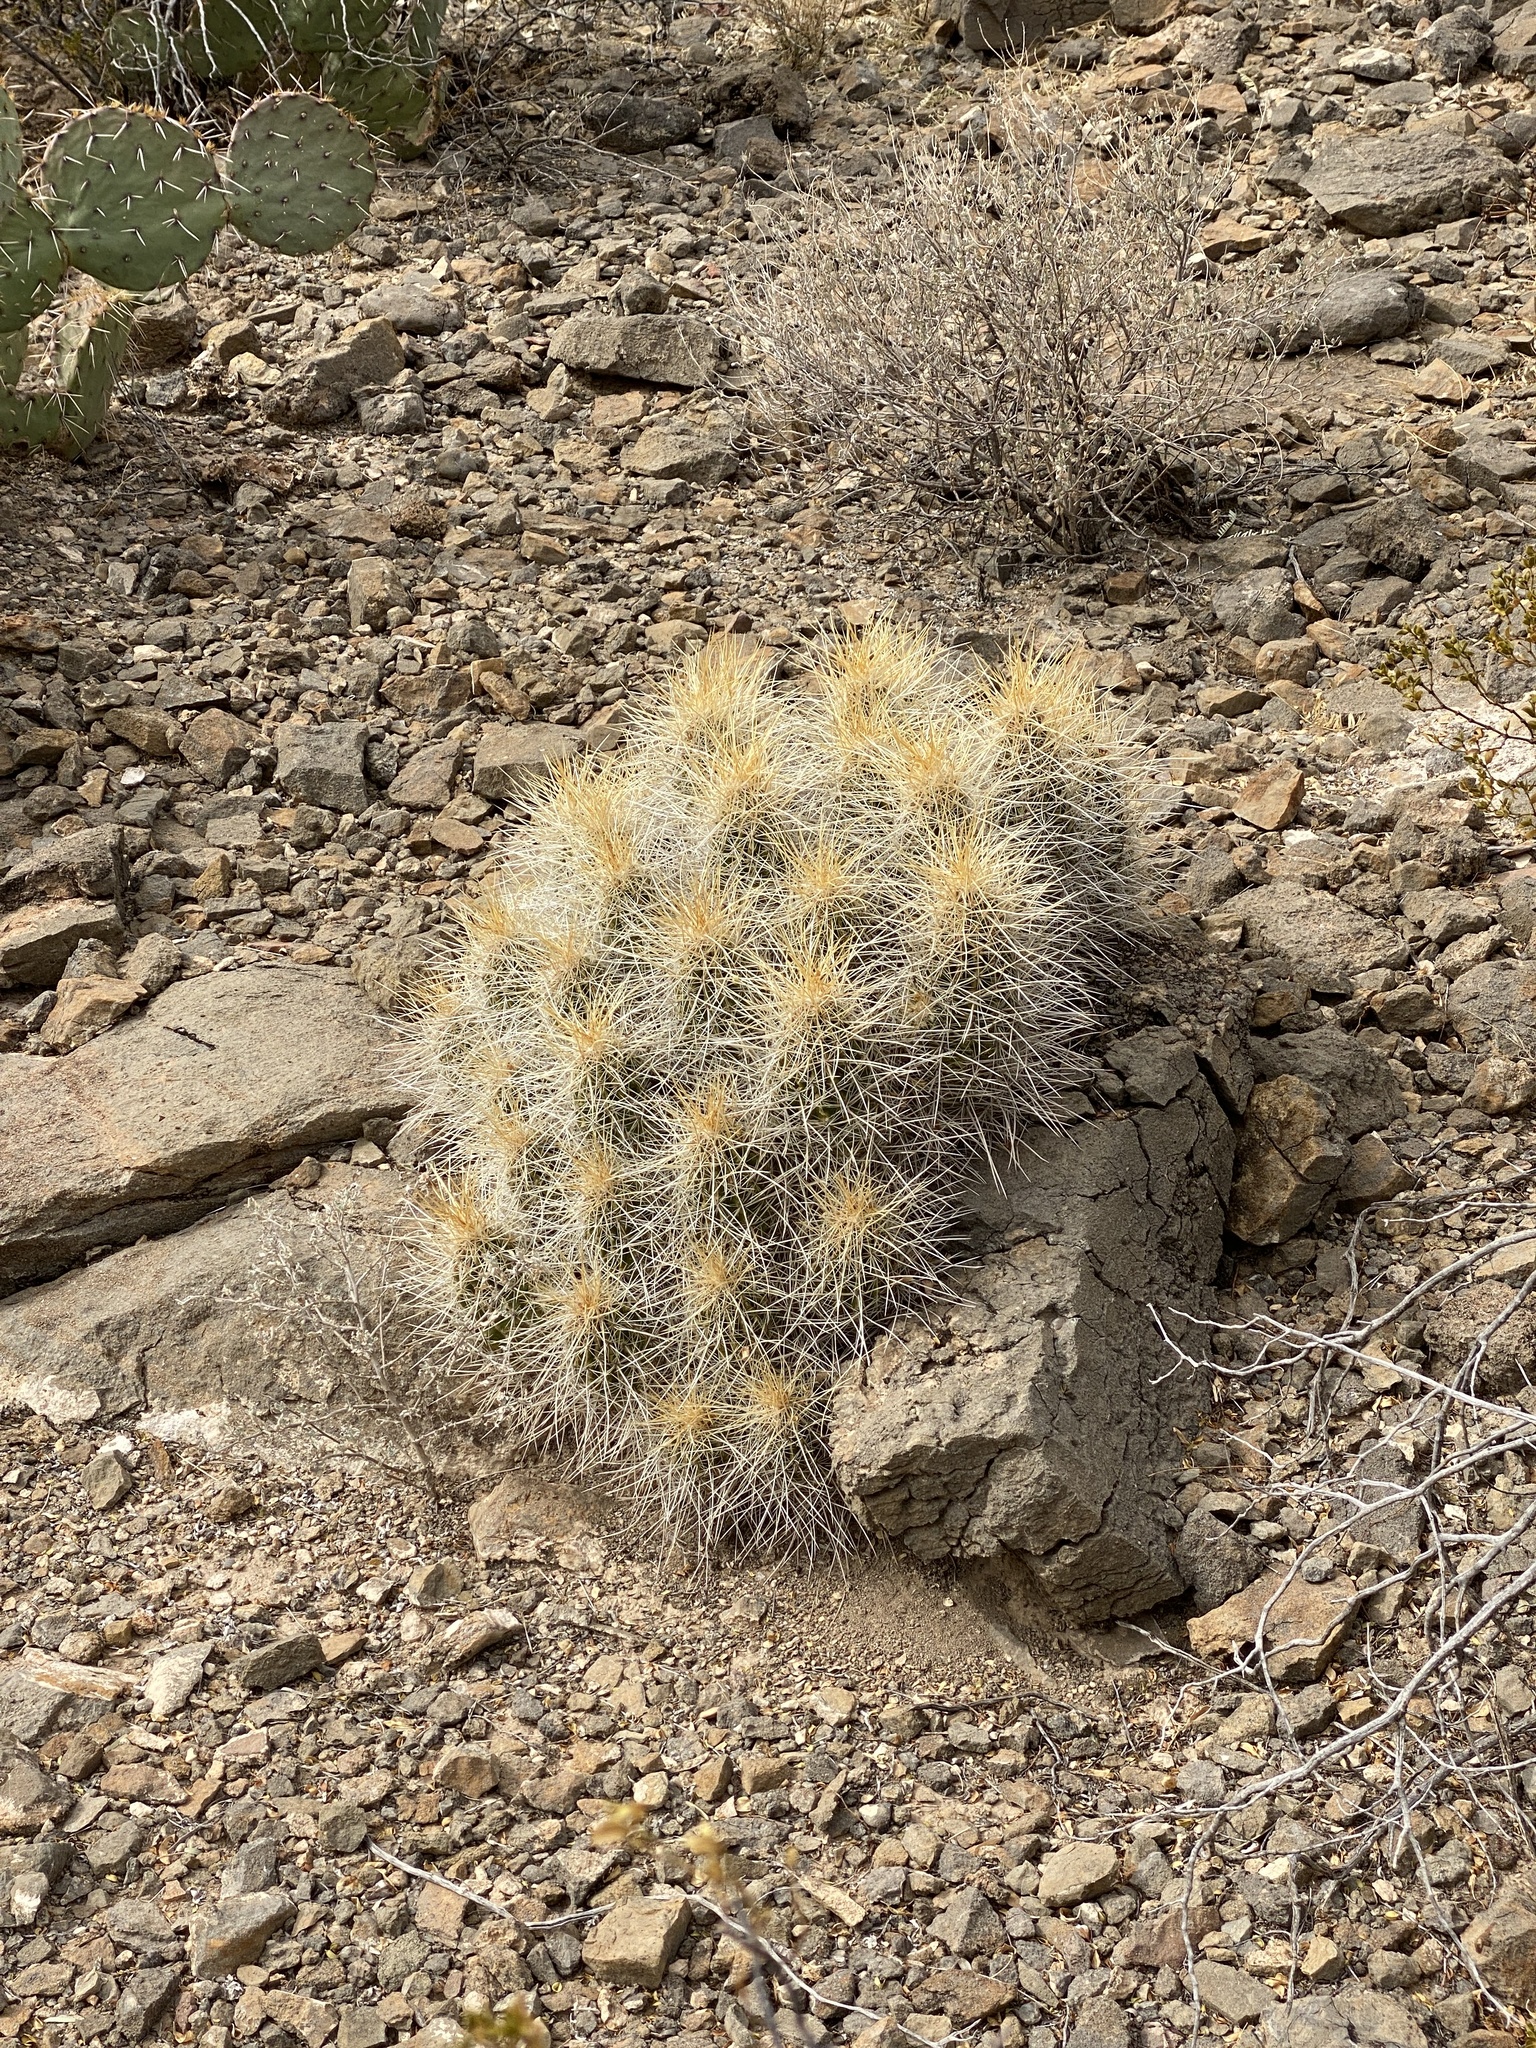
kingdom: Plantae
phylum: Tracheophyta
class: Magnoliopsida
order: Caryophyllales
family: Cactaceae
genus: Echinocereus
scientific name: Echinocereus stramineus
